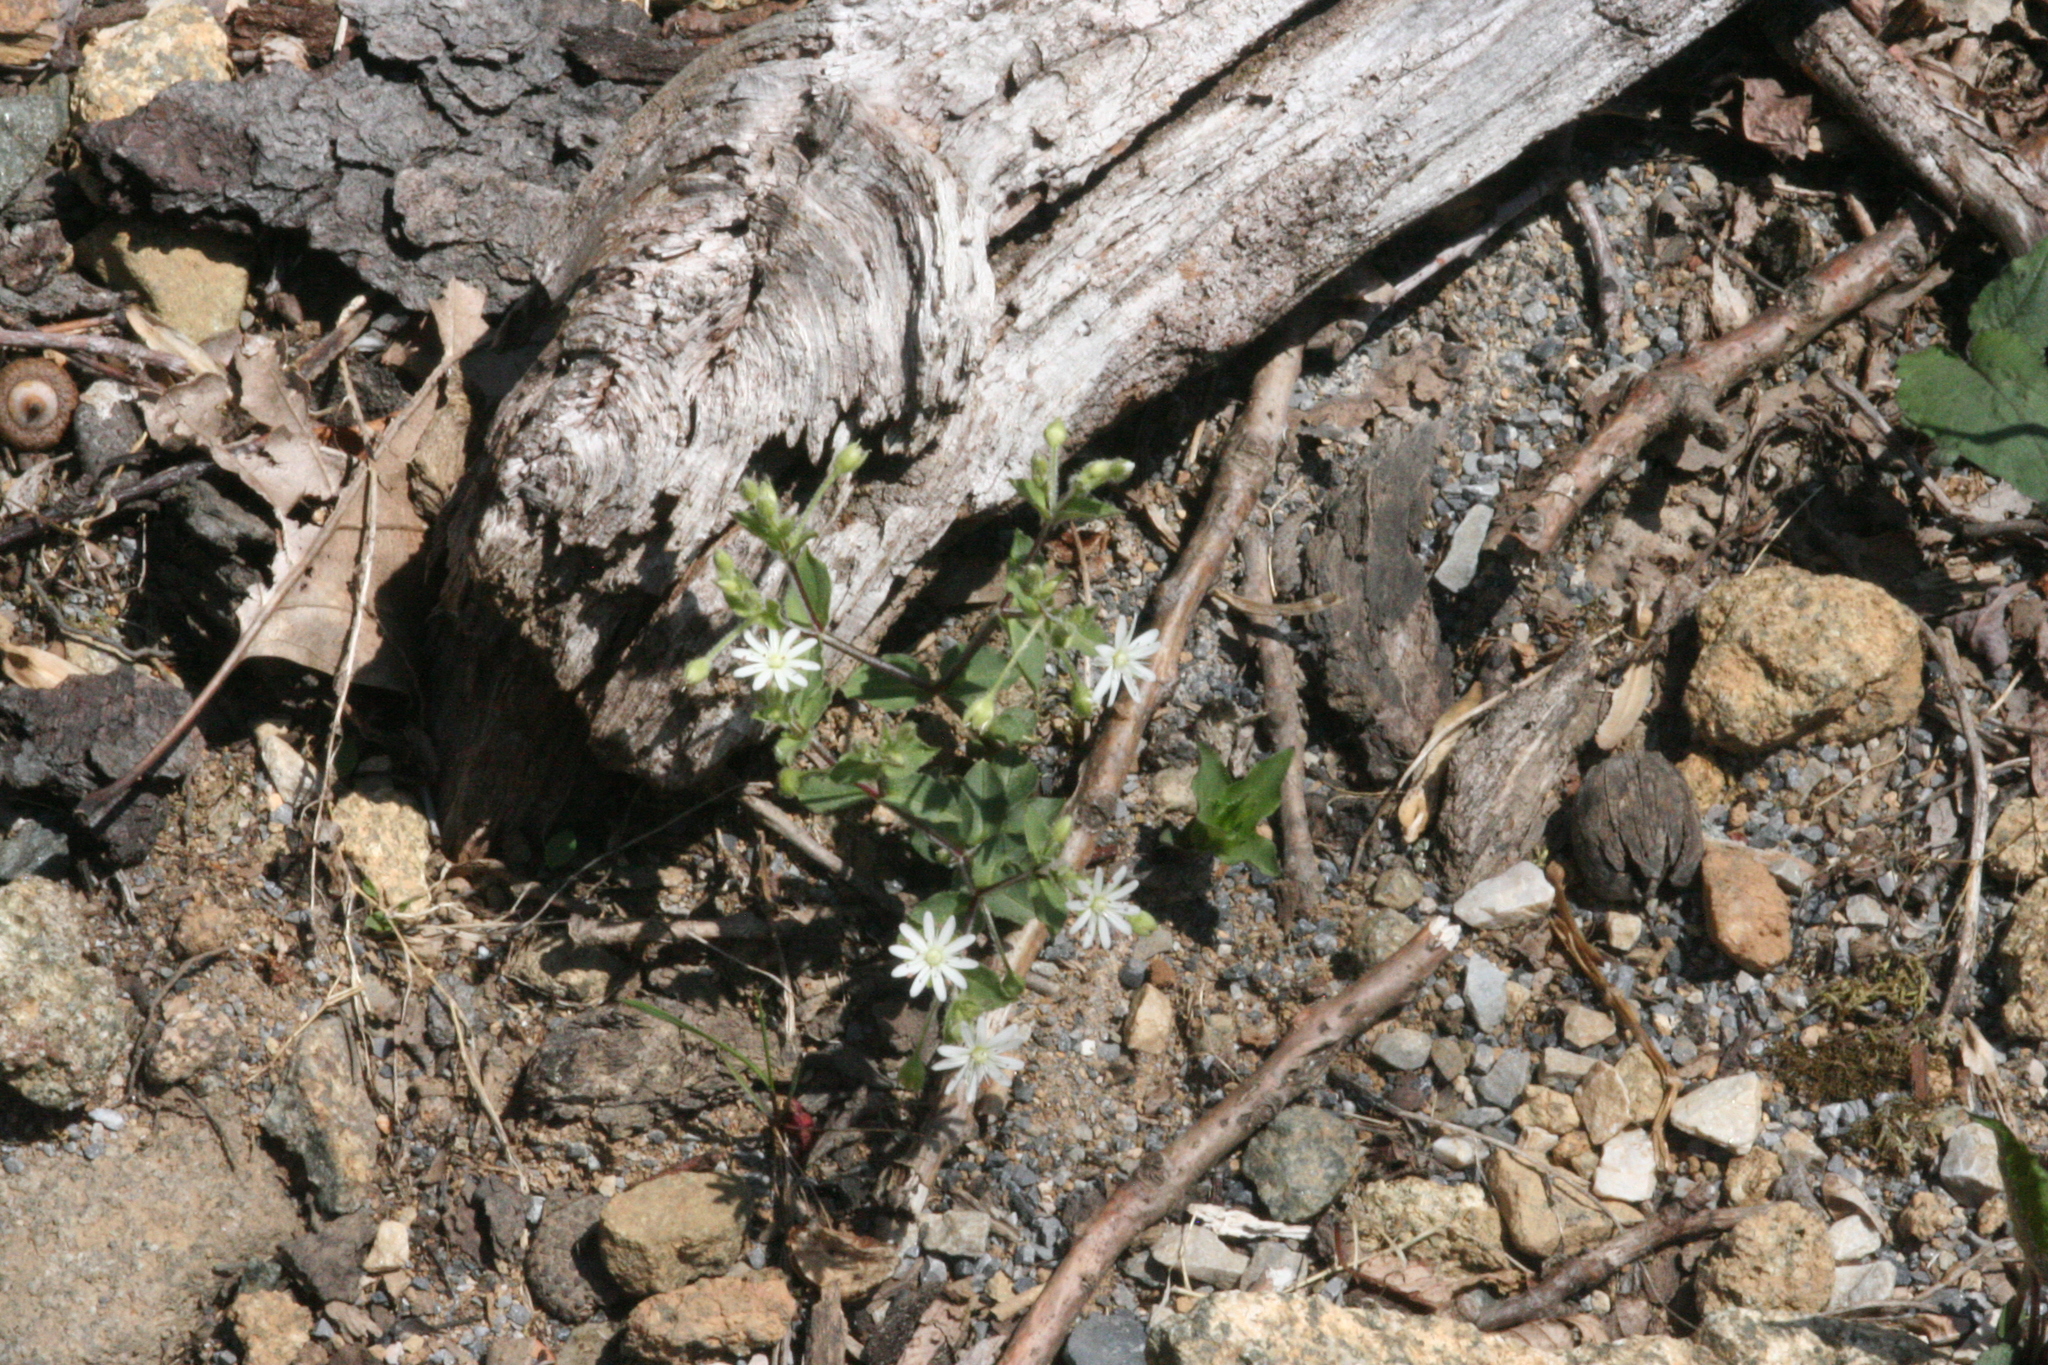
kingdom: Plantae
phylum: Tracheophyta
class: Magnoliopsida
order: Caryophyllales
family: Caryophyllaceae
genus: Stellaria
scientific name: Stellaria pubera
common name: Star chickweed
